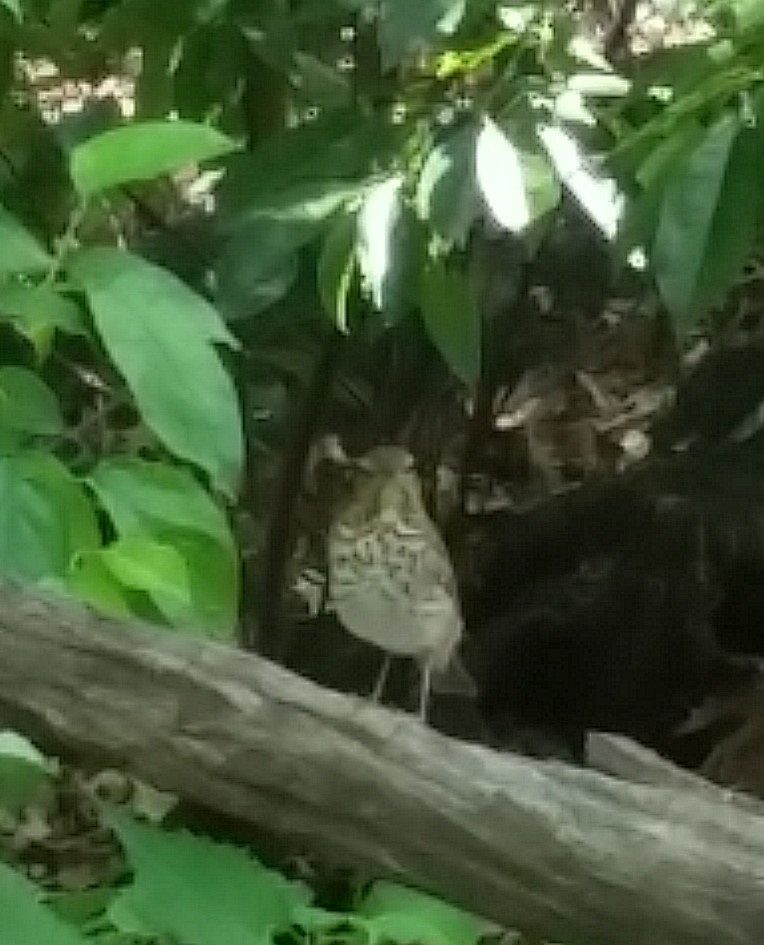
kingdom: Animalia
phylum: Chordata
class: Aves
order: Passeriformes
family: Turdidae
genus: Catharus
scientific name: Catharus ustulatus
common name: Swainson's thrush
